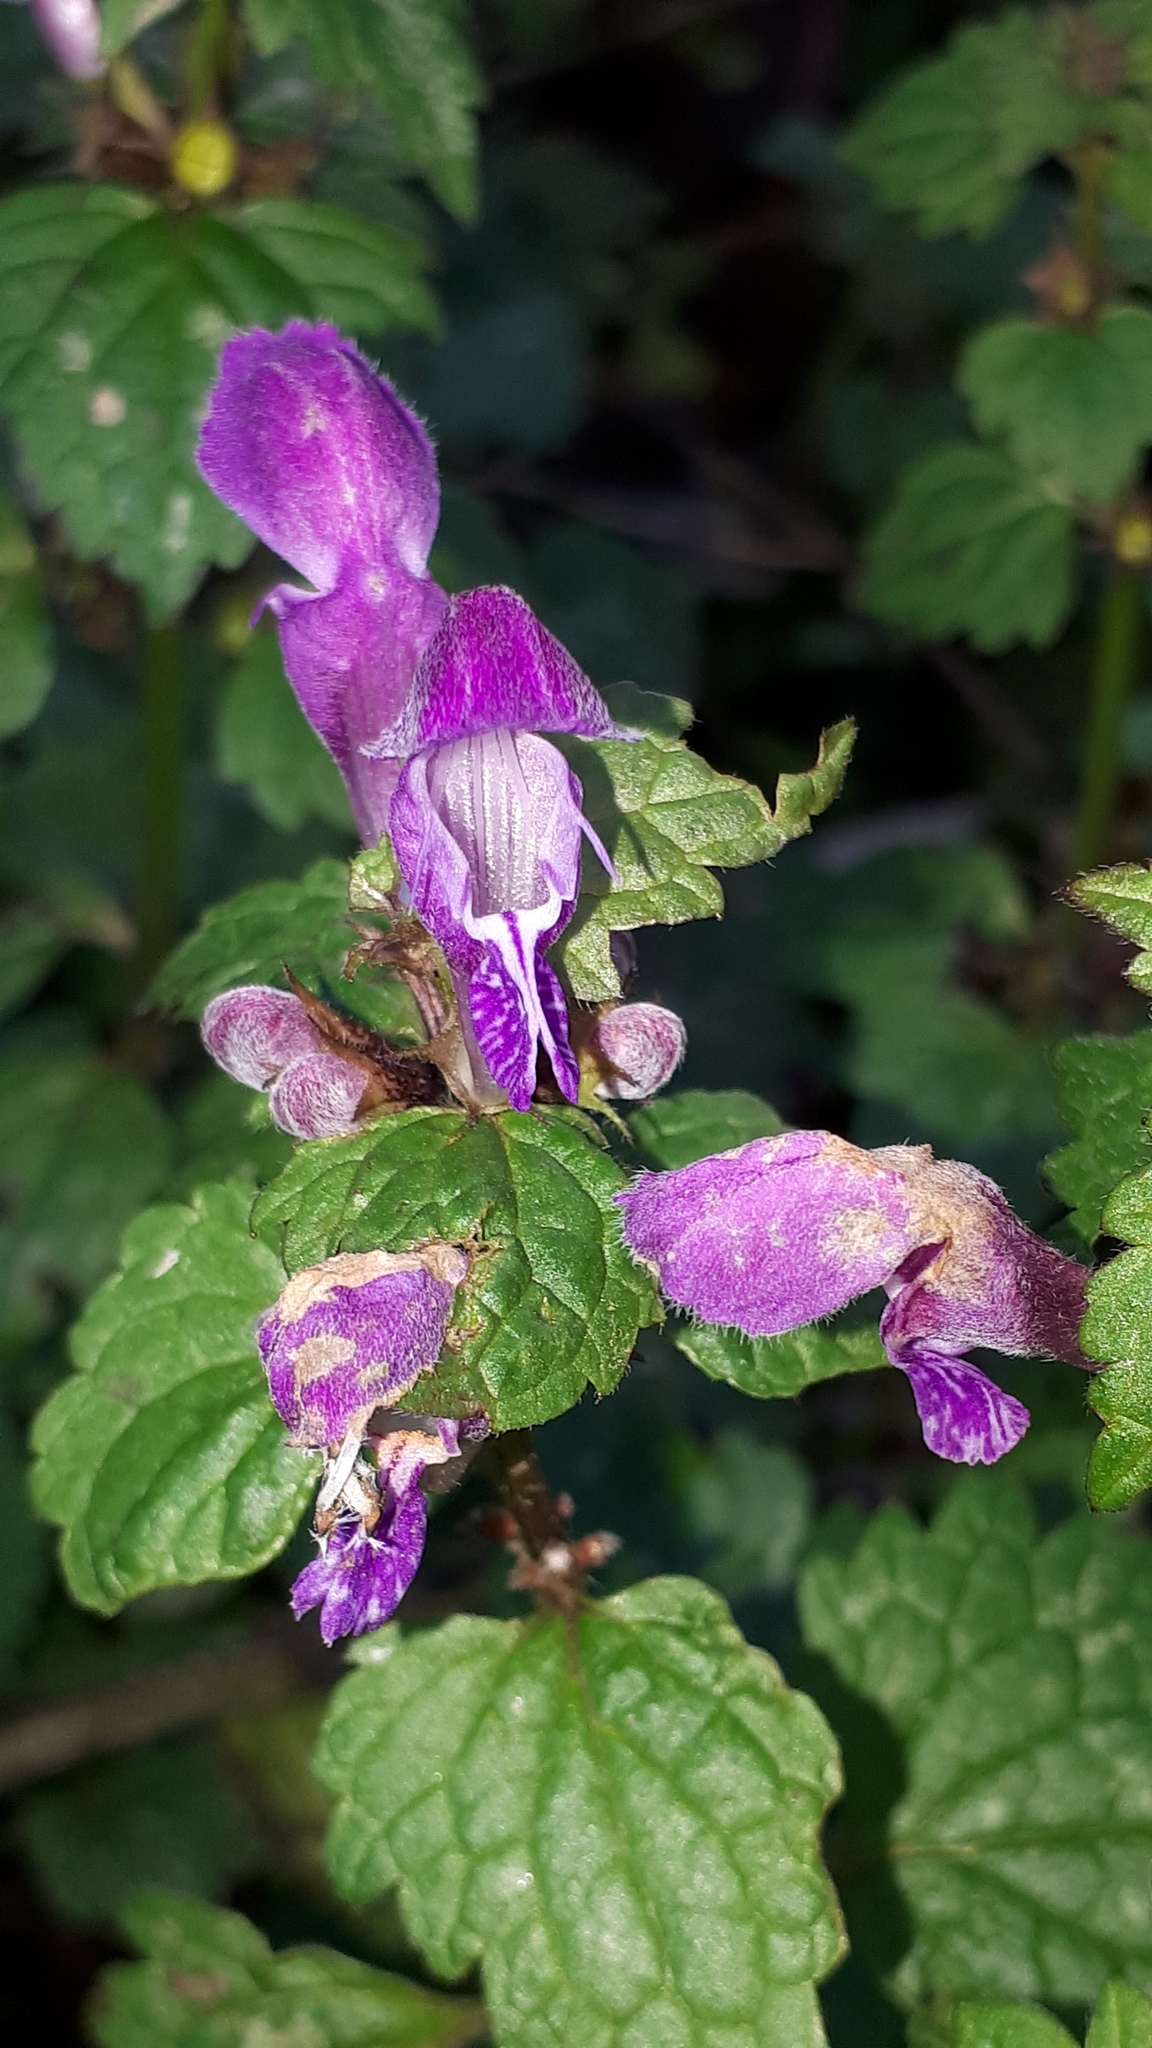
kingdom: Plantae
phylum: Tracheophyta
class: Magnoliopsida
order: Lamiales
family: Lamiaceae
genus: Lamium
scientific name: Lamium maculatum
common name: Spotted dead-nettle
